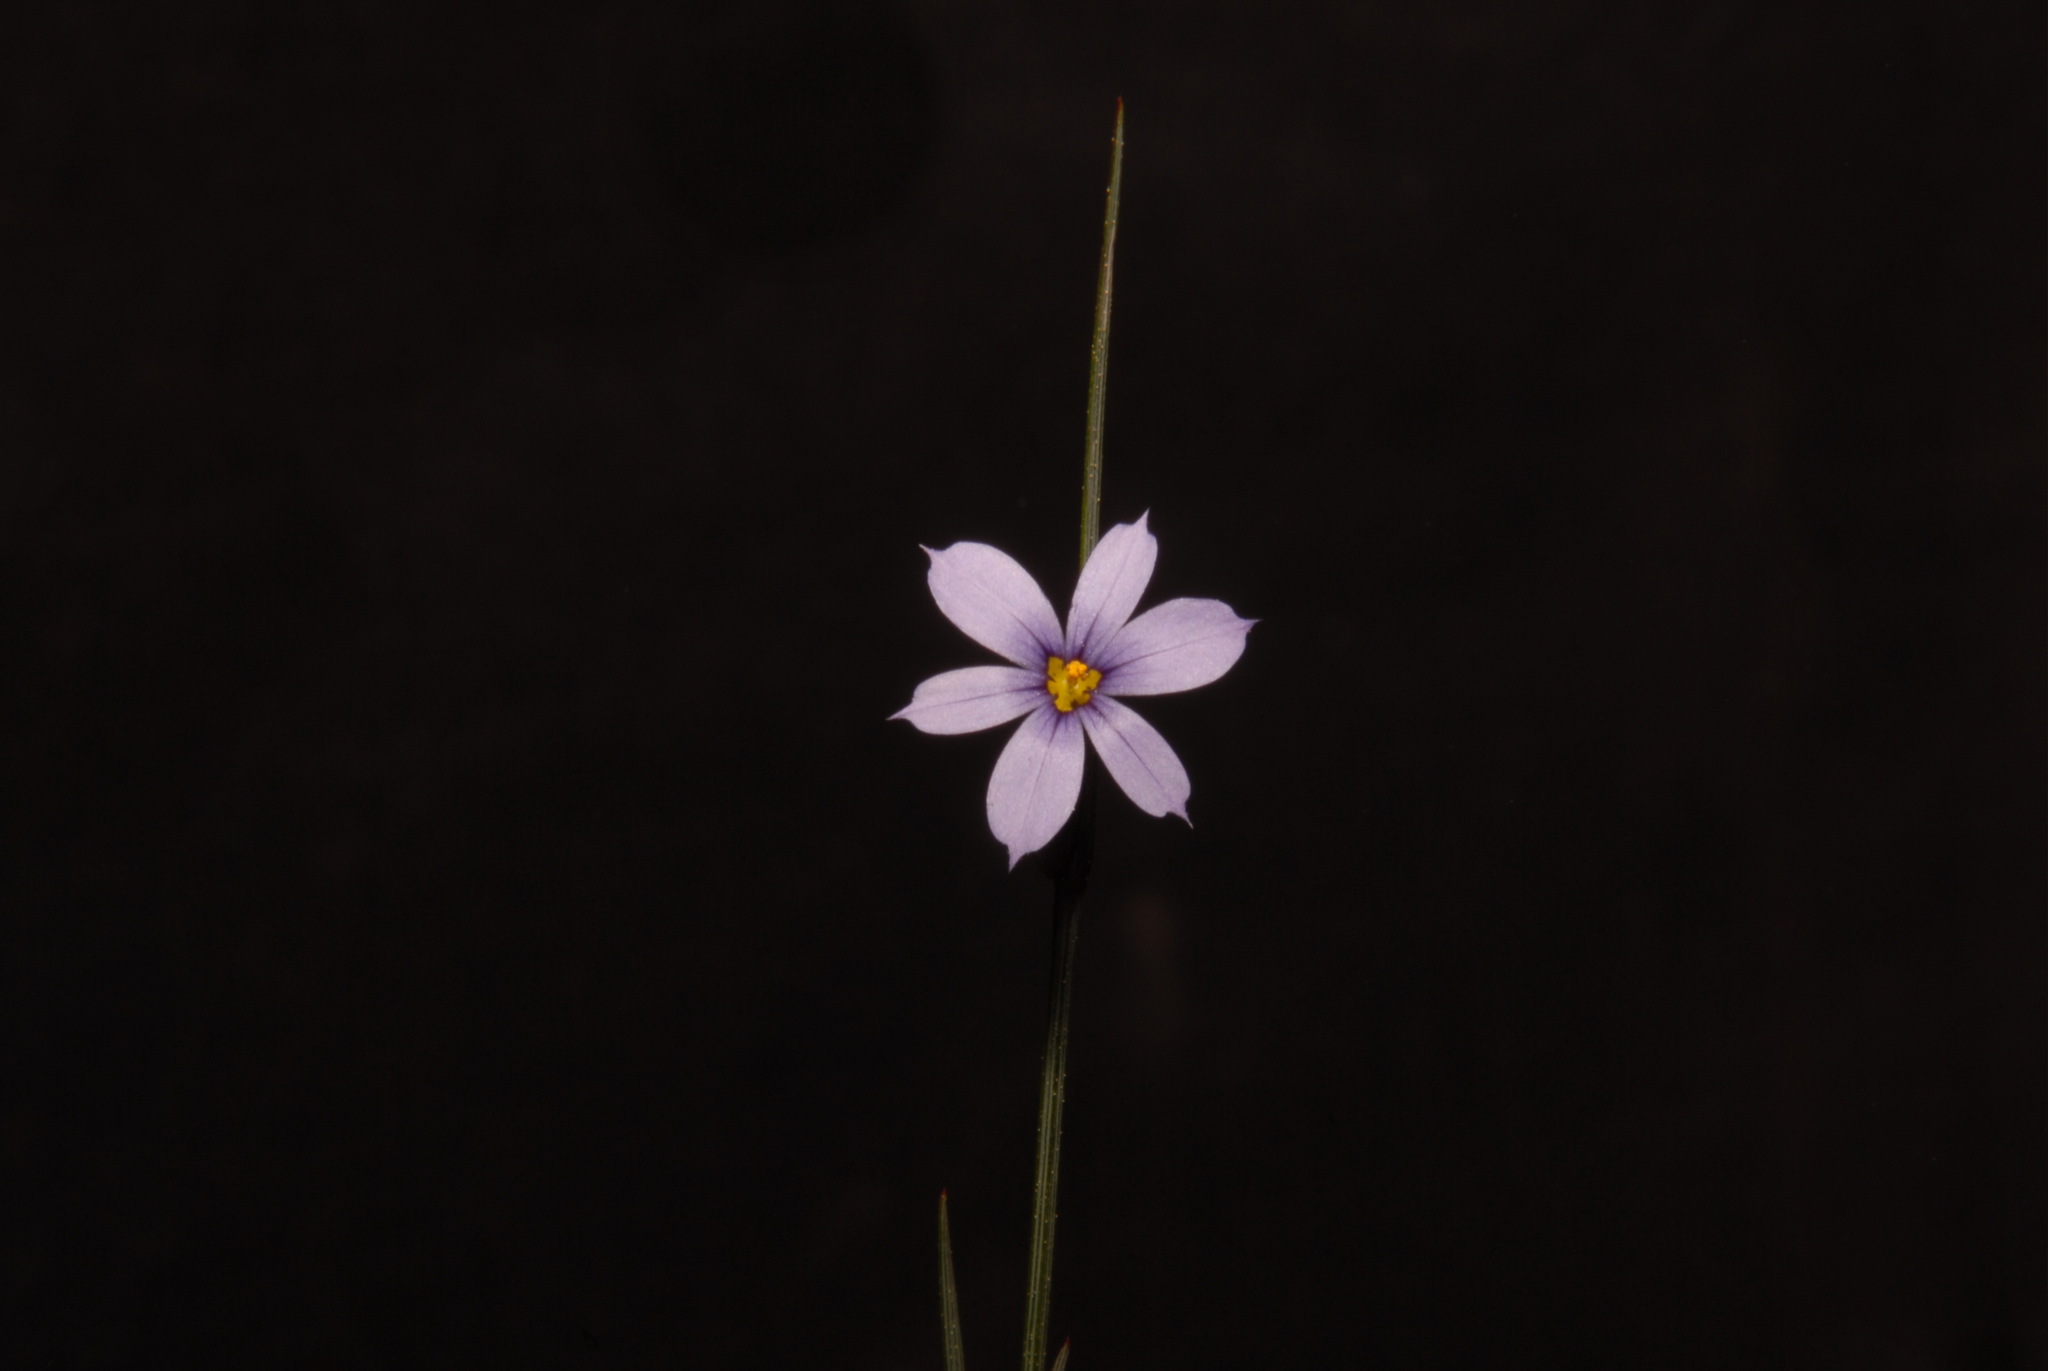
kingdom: Plantae
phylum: Tracheophyta
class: Liliopsida
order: Asparagales
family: Iridaceae
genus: Sisyrinchium
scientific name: Sisyrinchium calciphilum
